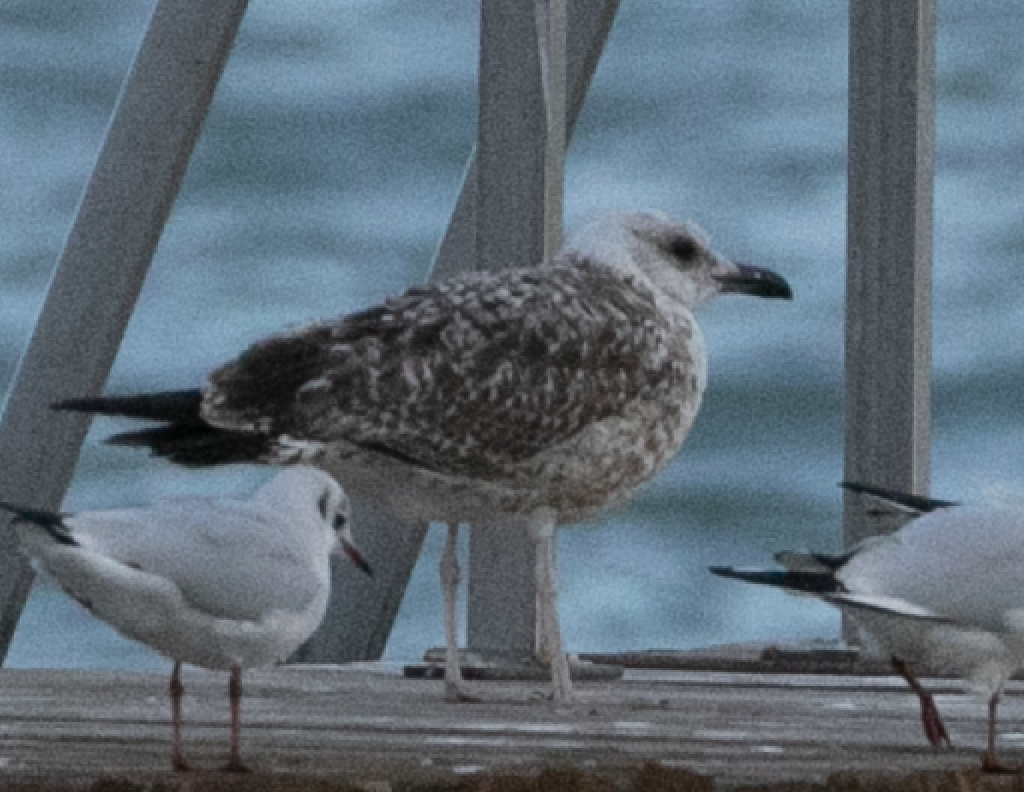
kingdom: Animalia
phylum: Chordata
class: Aves
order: Charadriiformes
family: Laridae
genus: Larus
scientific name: Larus michahellis
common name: Yellow-legged gull
